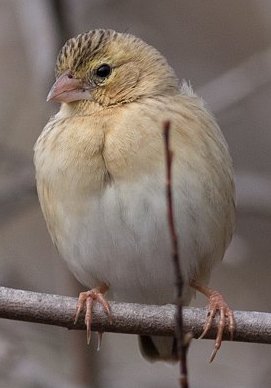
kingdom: Animalia
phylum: Chordata
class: Aves
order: Passeriformes
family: Ploceidae
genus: Euplectes
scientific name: Euplectes franciscanus
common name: Northern red bishop
